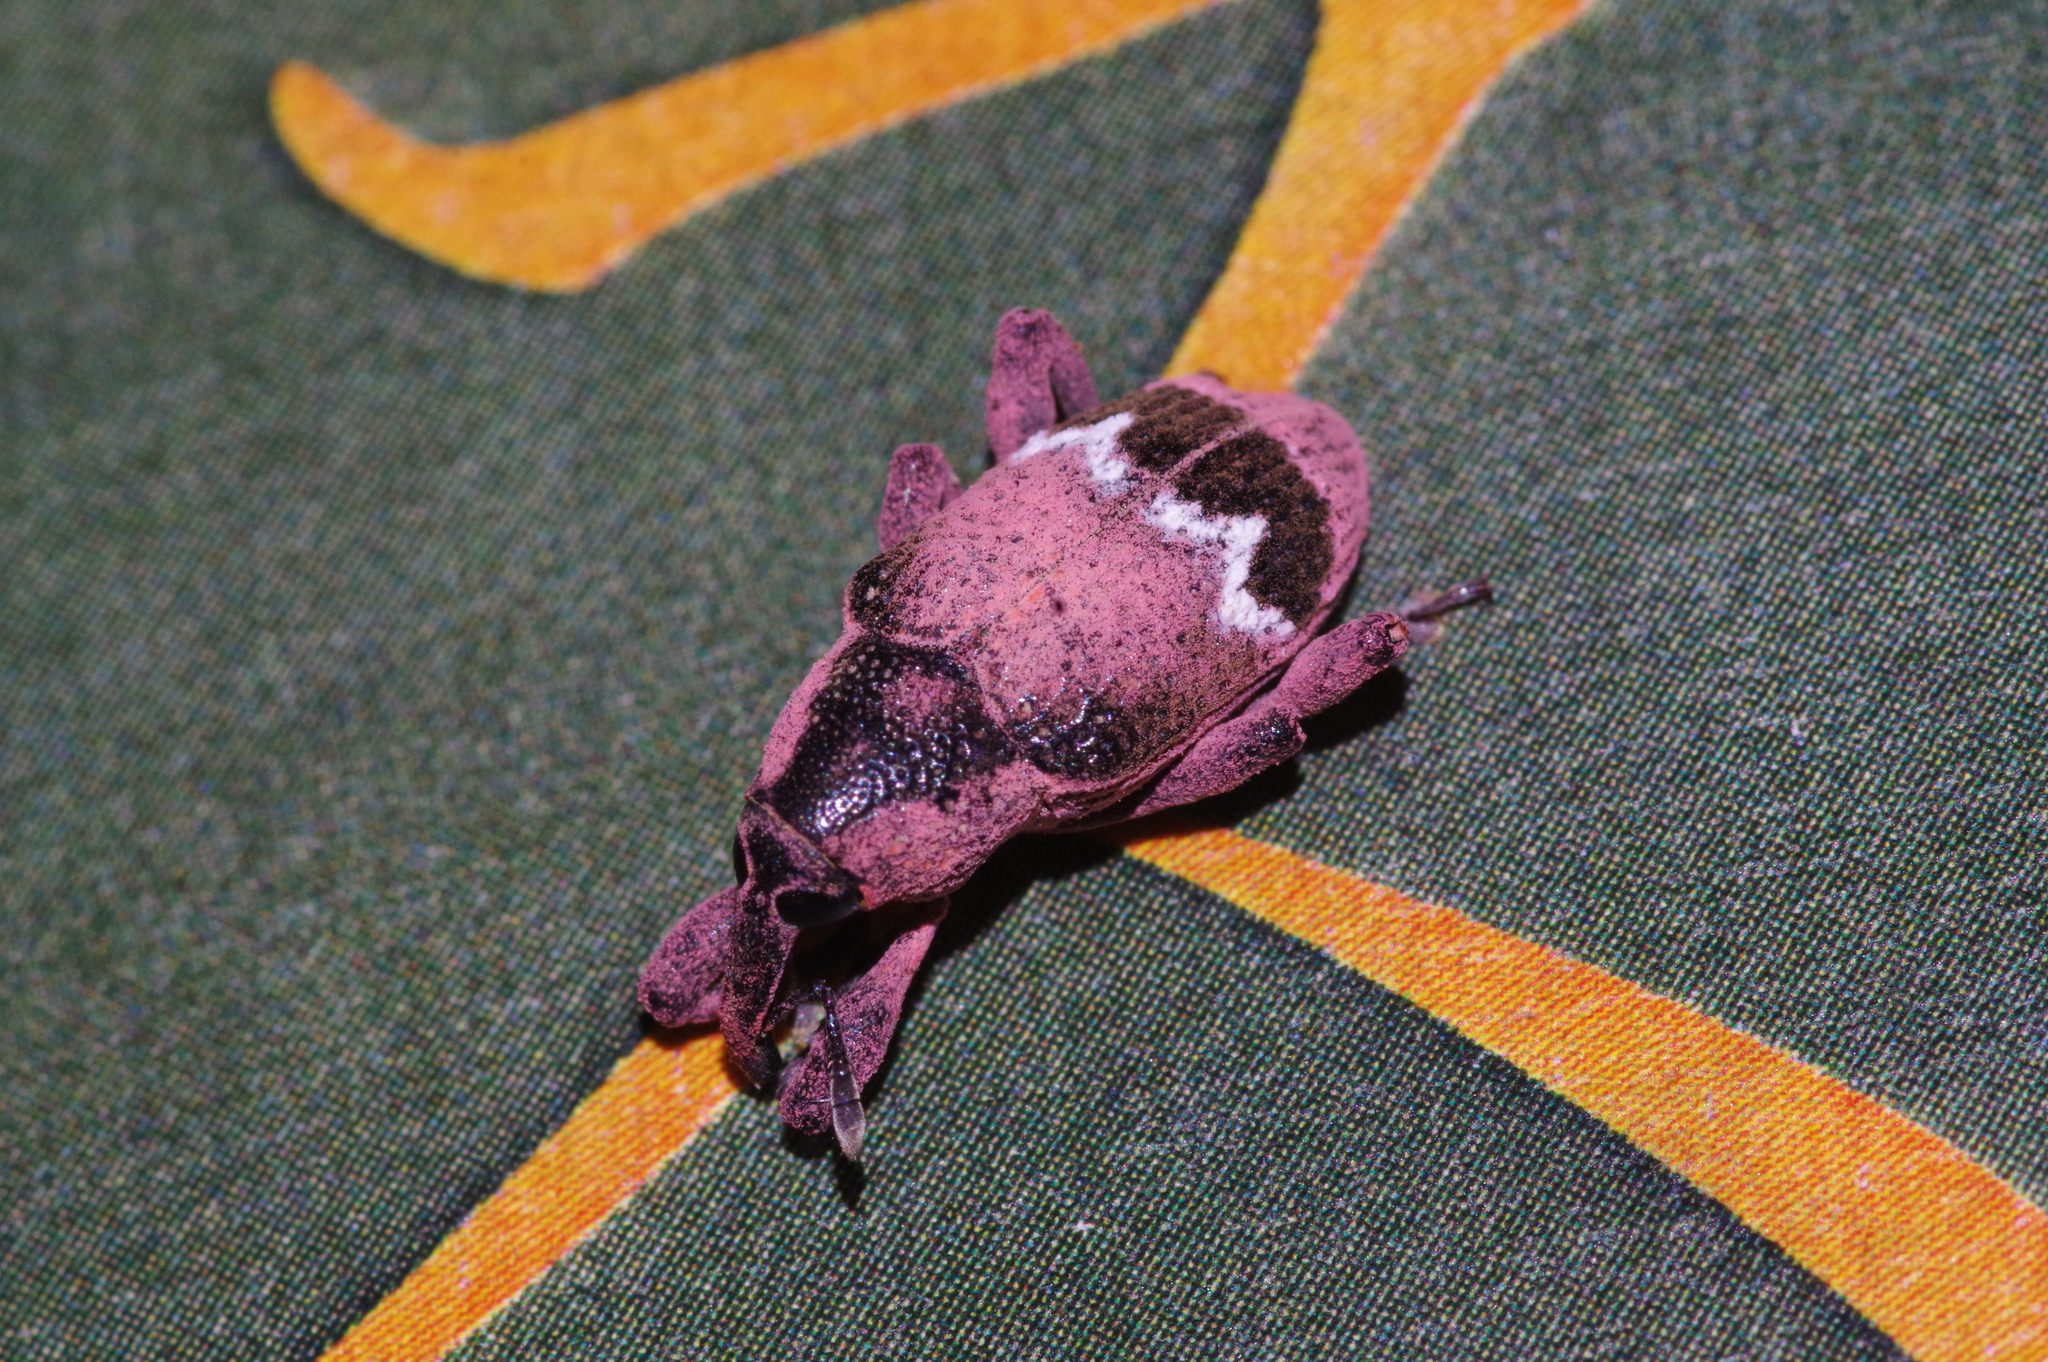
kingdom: Animalia
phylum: Arthropoda
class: Insecta
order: Coleoptera
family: Curculionidae
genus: Aclees
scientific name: Aclees hirayamai
